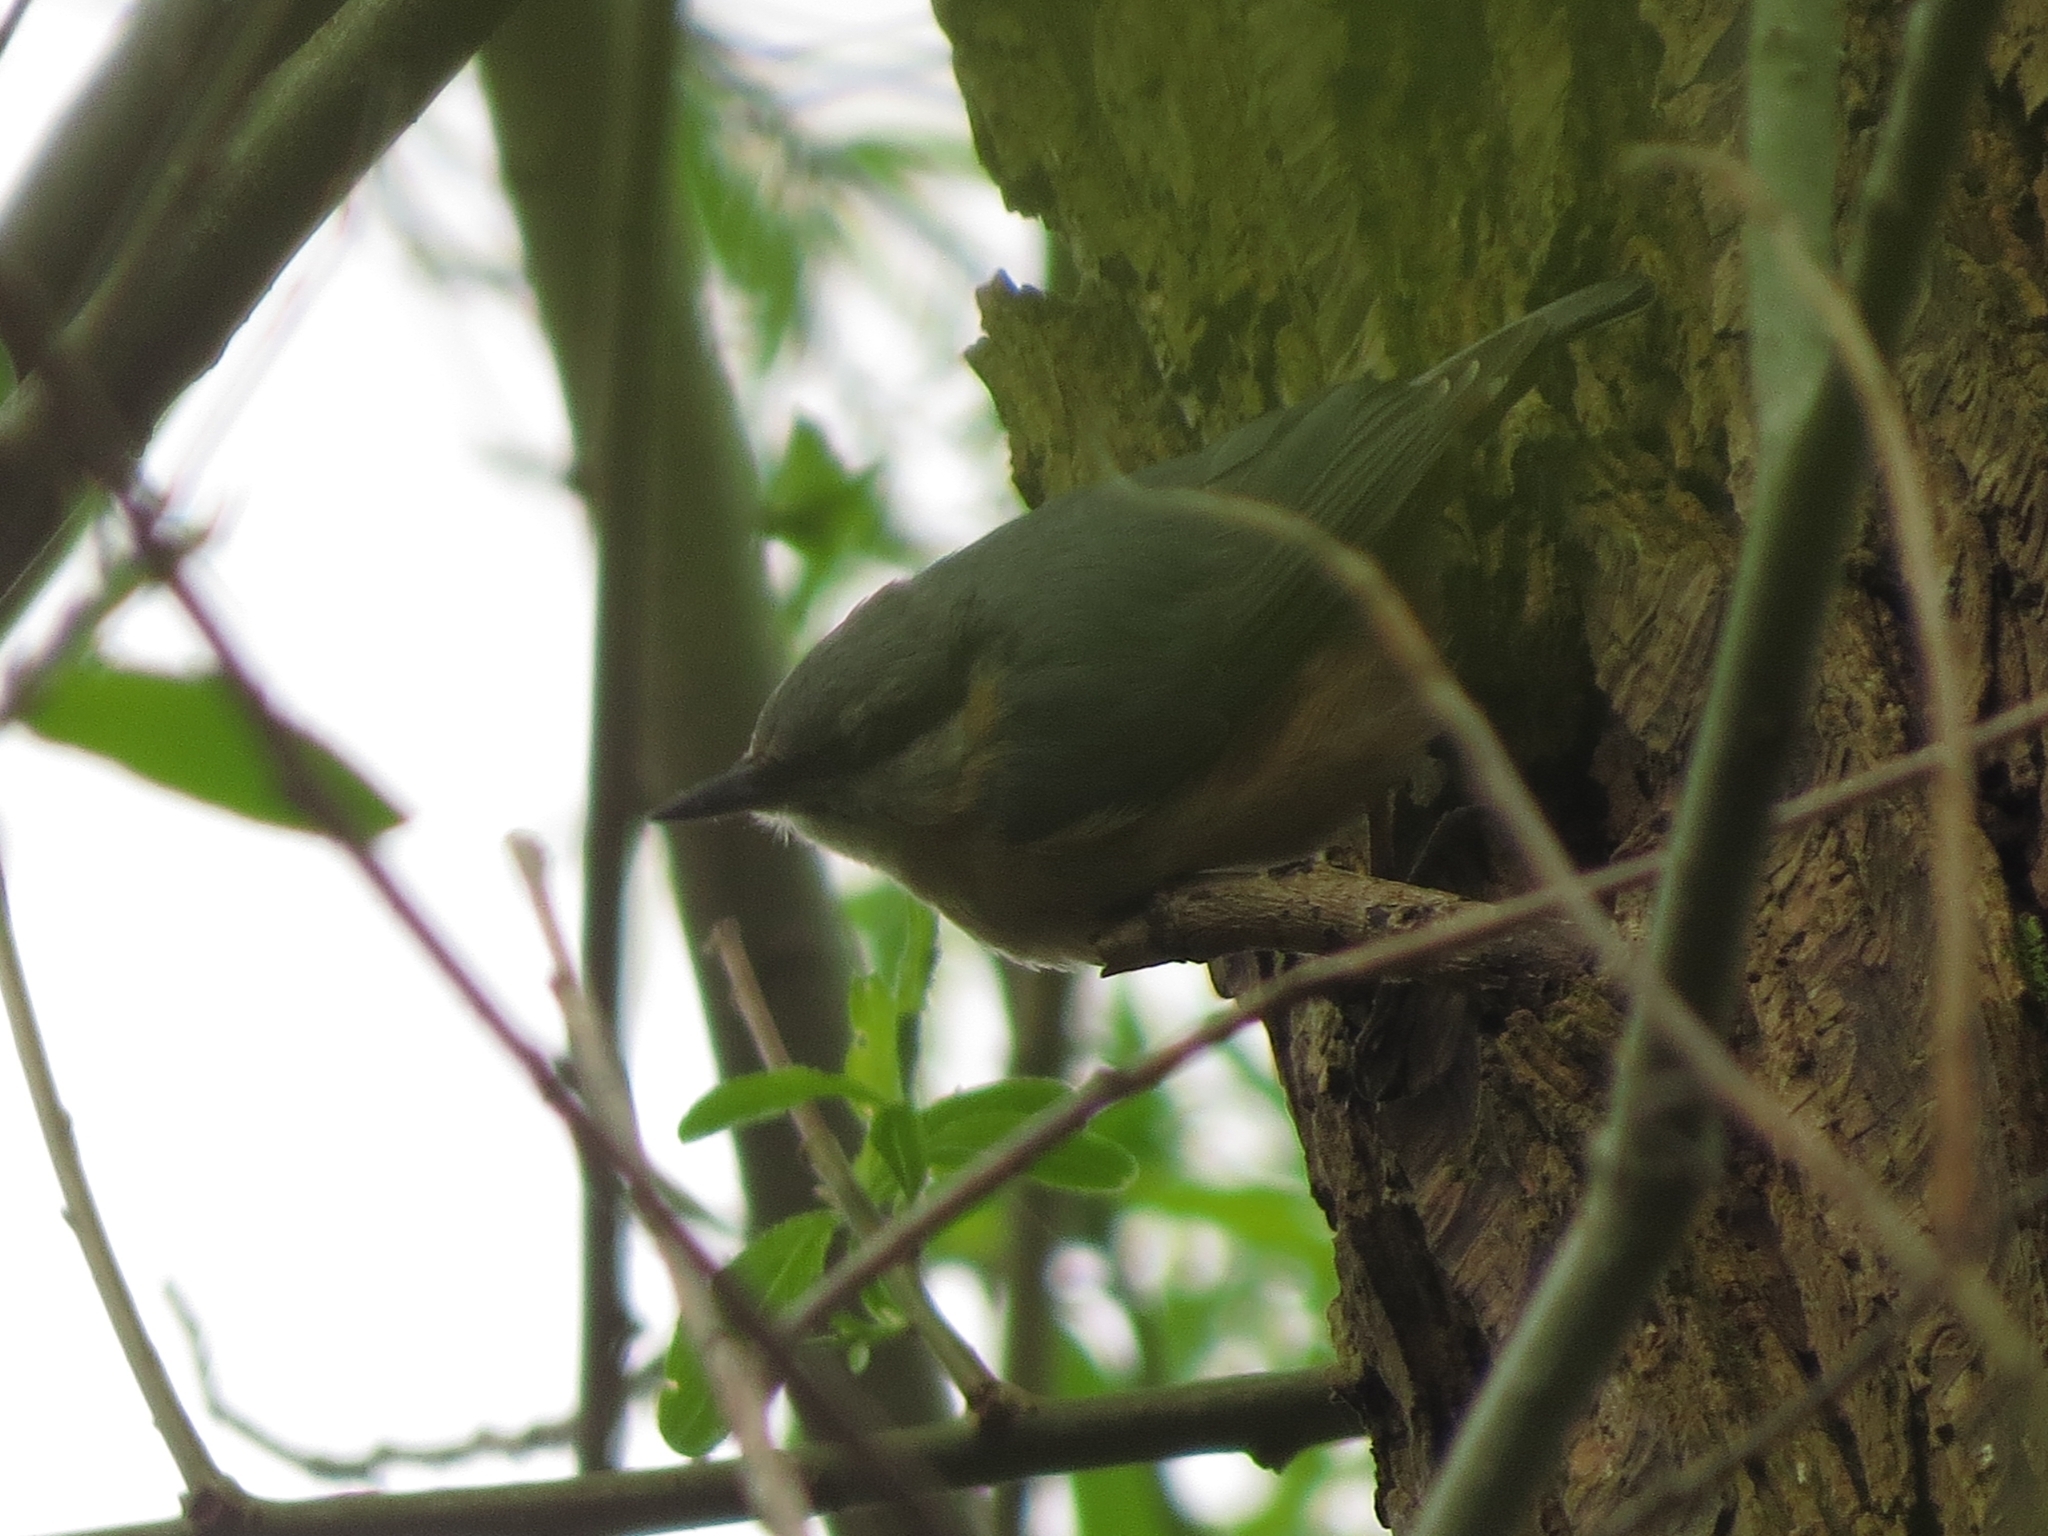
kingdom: Animalia
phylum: Chordata
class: Aves
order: Passeriformes
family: Sittidae
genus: Sitta
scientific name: Sitta europaea
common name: Eurasian nuthatch
